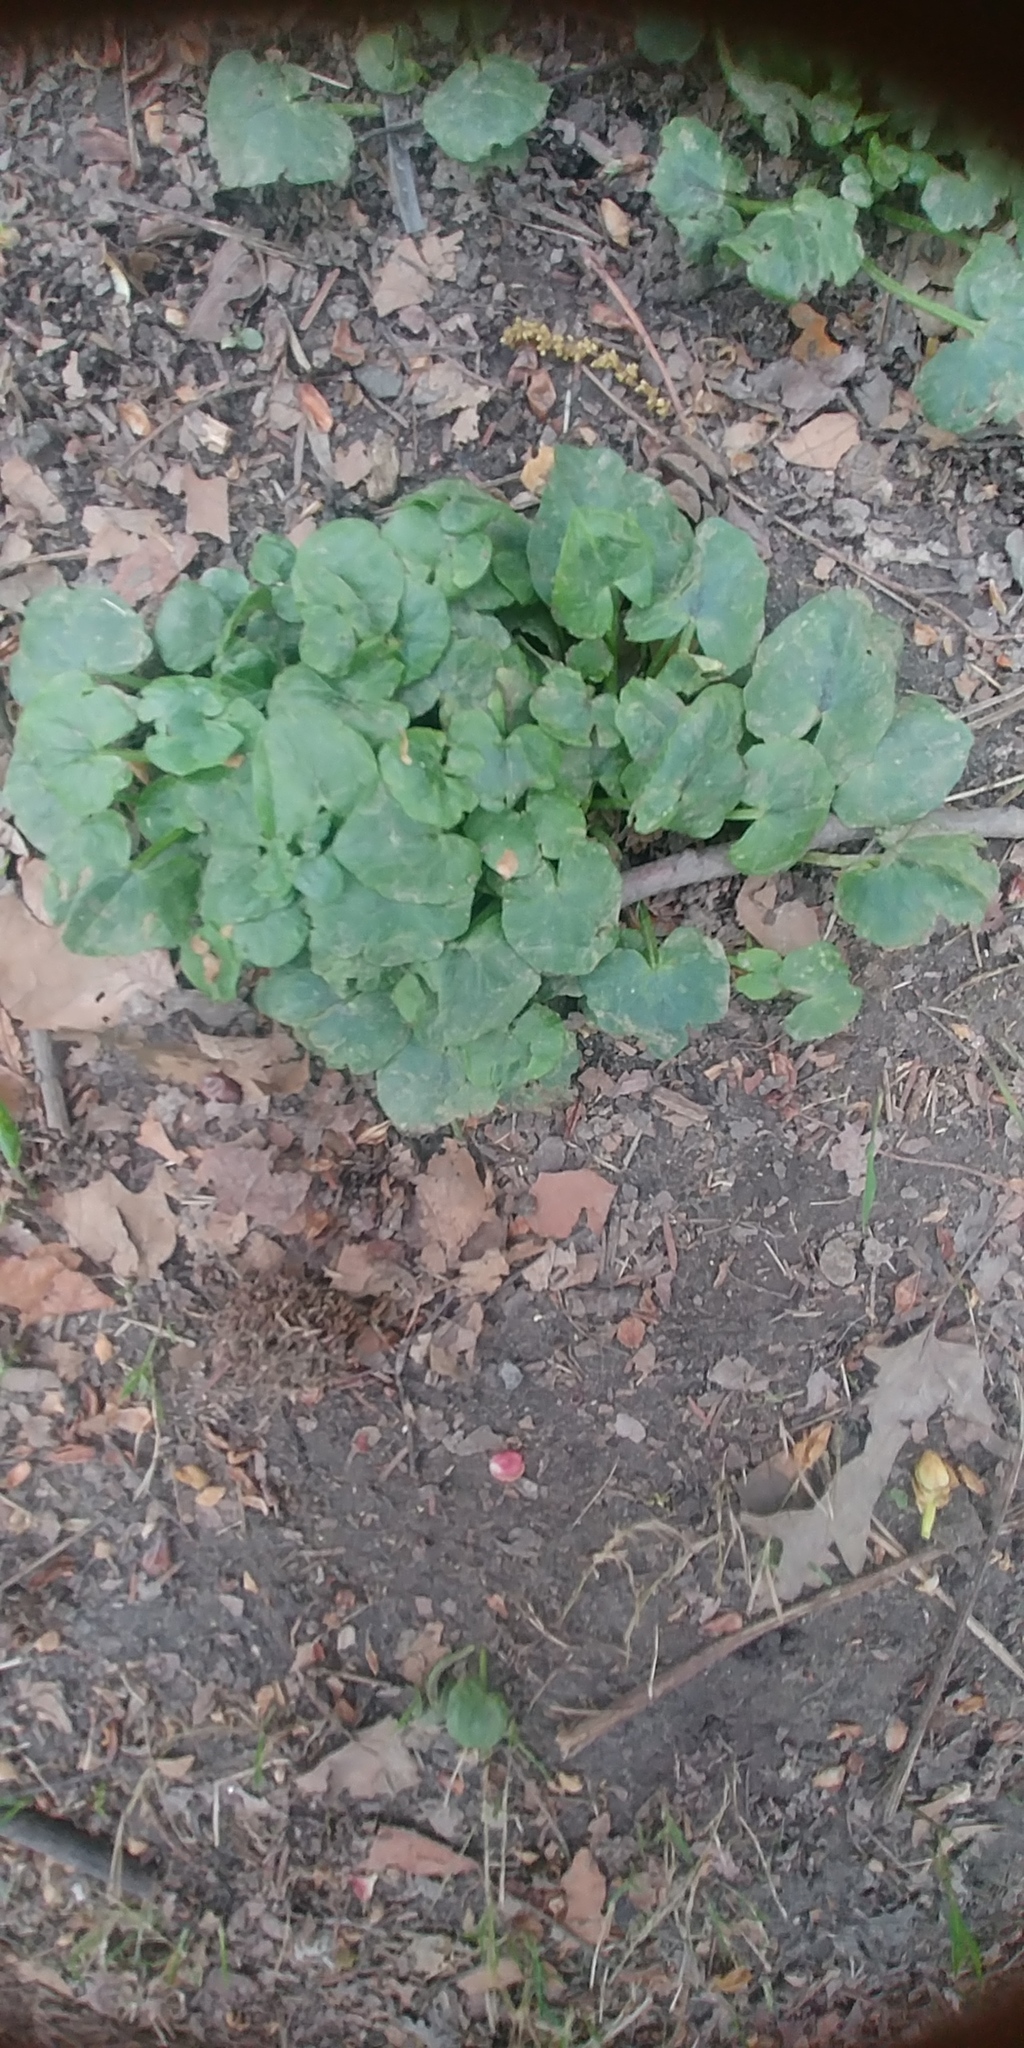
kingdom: Plantae
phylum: Tracheophyta
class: Magnoliopsida
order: Ranunculales
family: Ranunculaceae
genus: Ficaria
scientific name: Ficaria verna
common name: Lesser celandine
